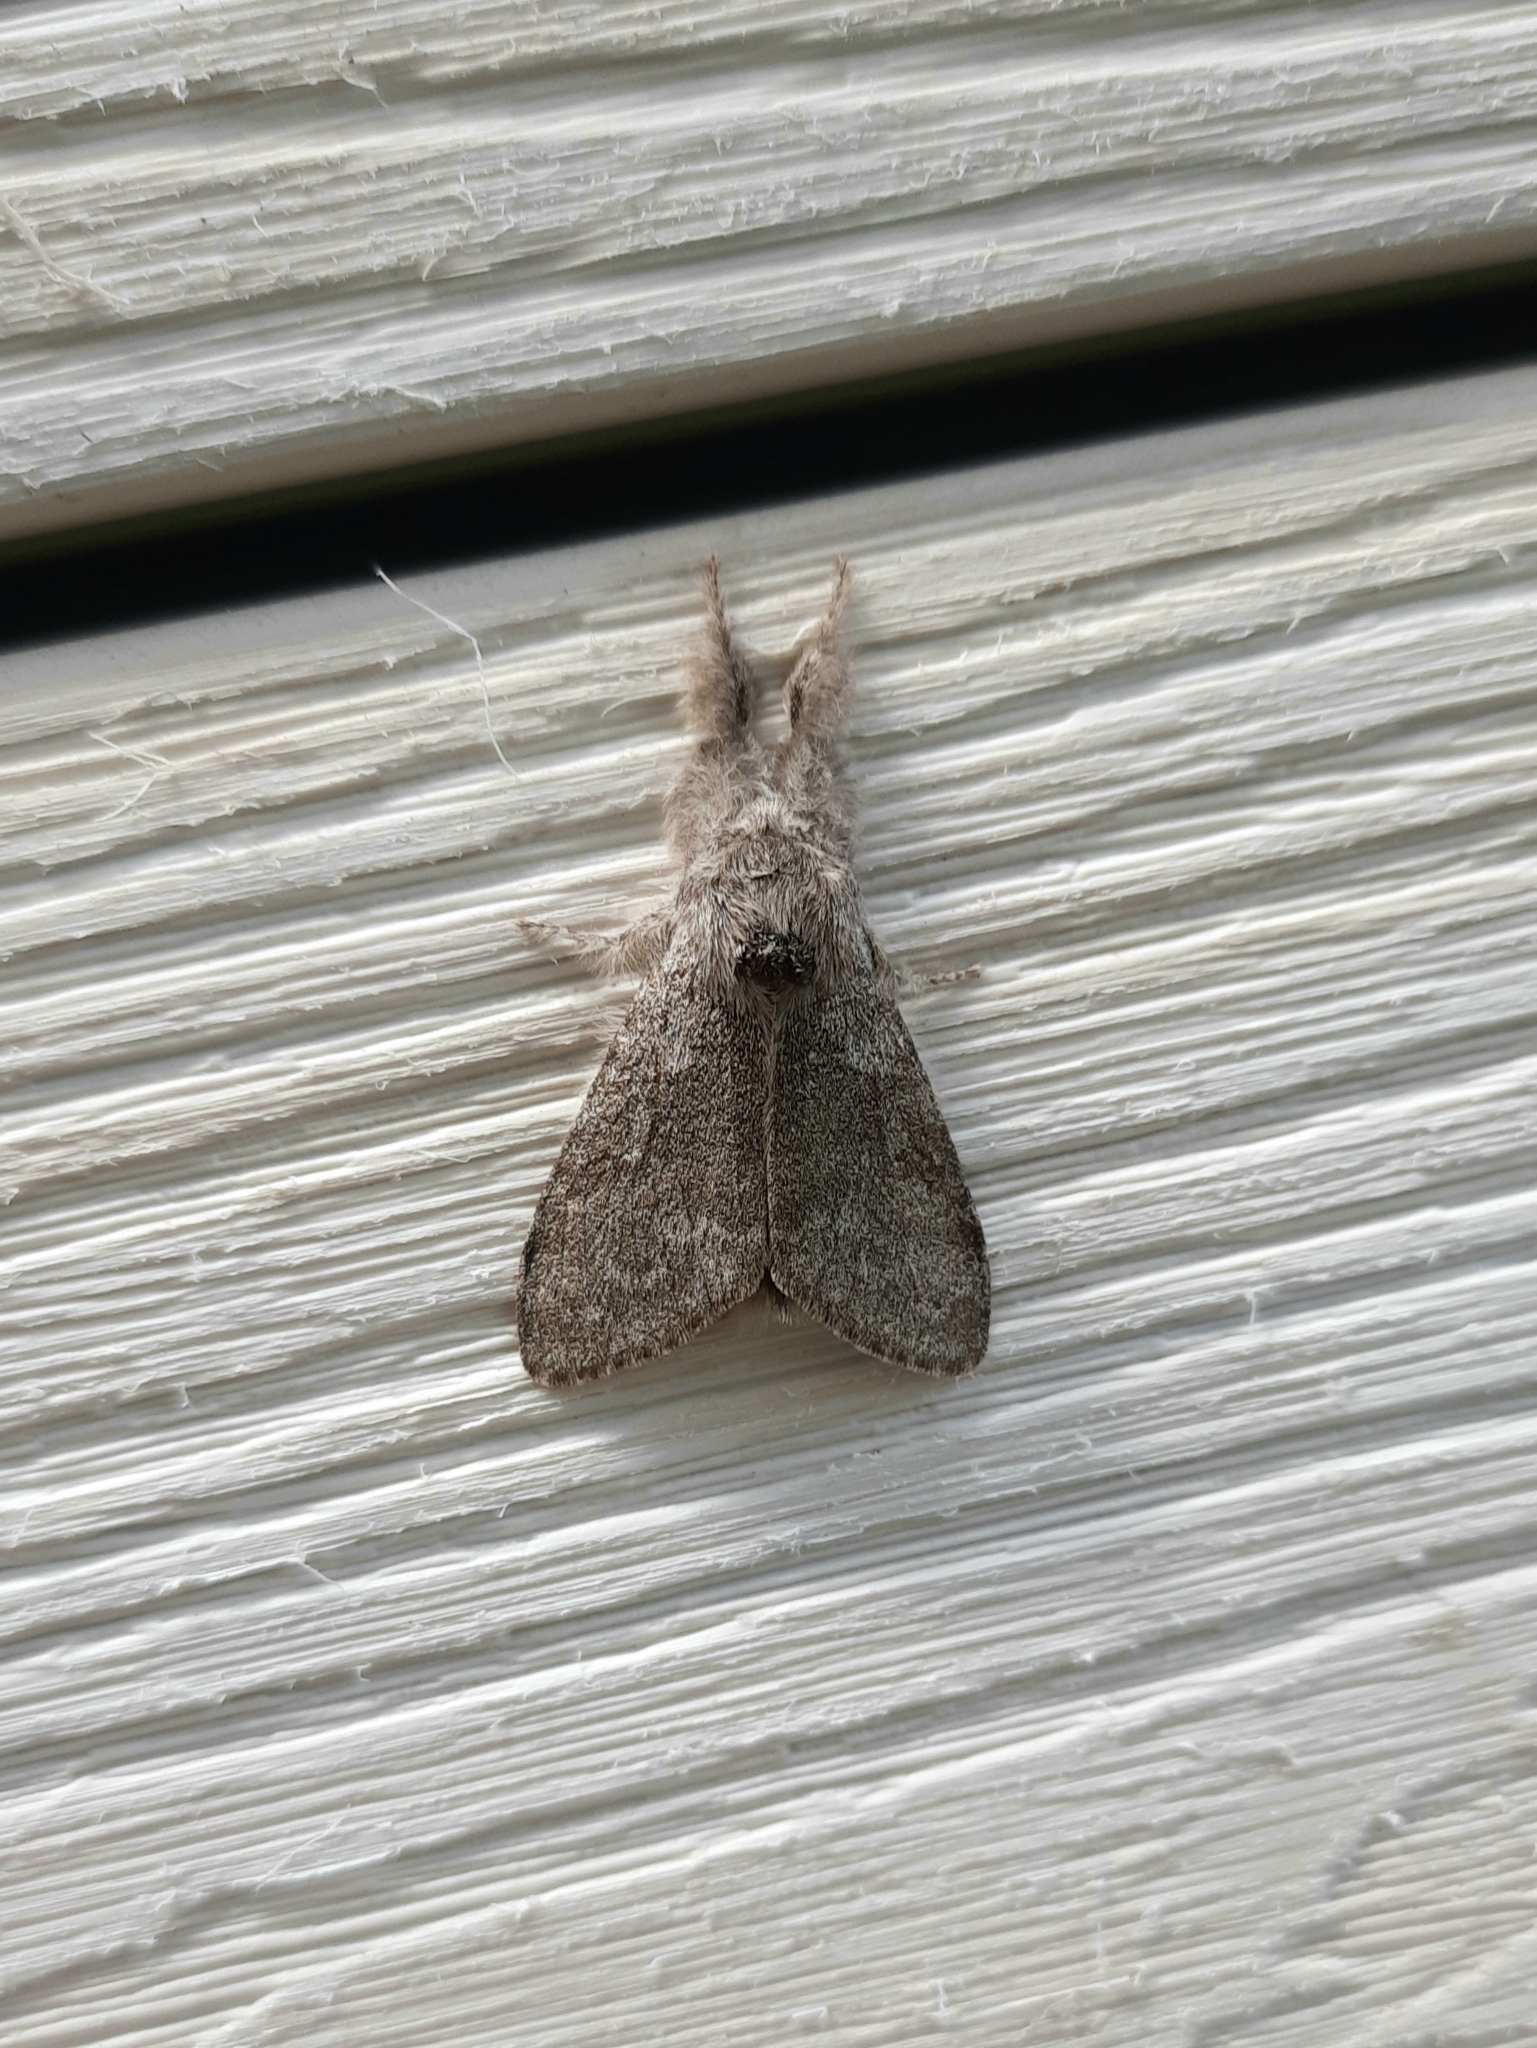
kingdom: Animalia
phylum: Arthropoda
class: Insecta
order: Lepidoptera
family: Erebidae
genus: Calliteara
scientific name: Calliteara pudibunda
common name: Pale tussock
